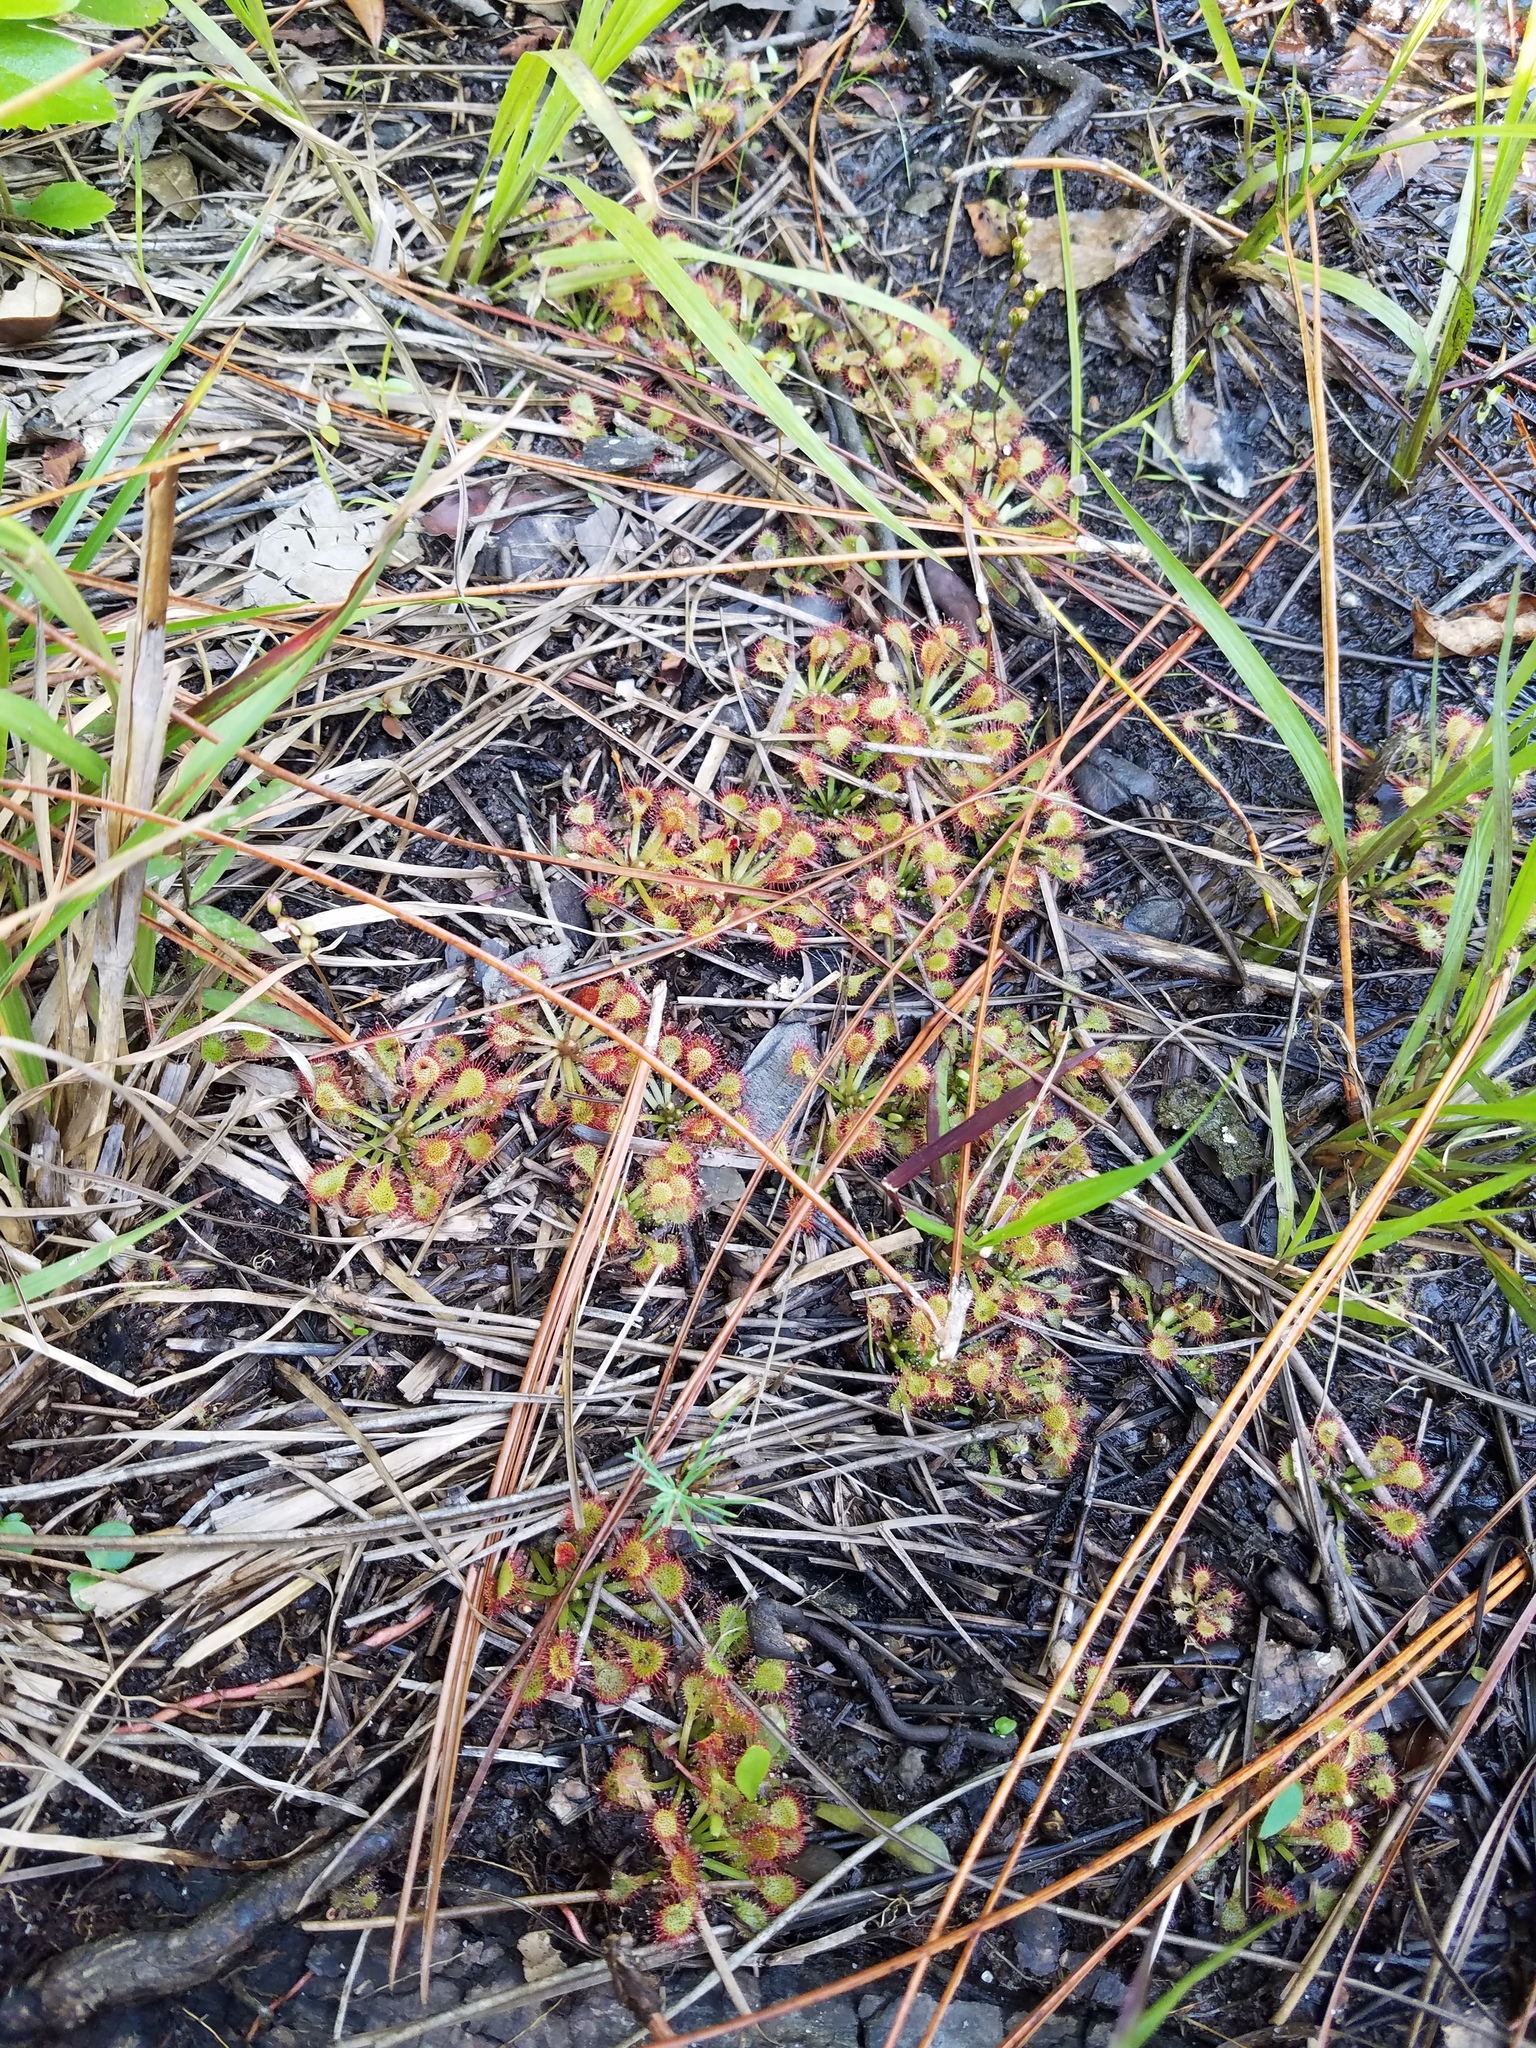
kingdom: Plantae
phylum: Tracheophyta
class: Magnoliopsida
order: Caryophyllales
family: Droseraceae
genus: Drosera
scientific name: Drosera capillaris
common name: Pink sundew
